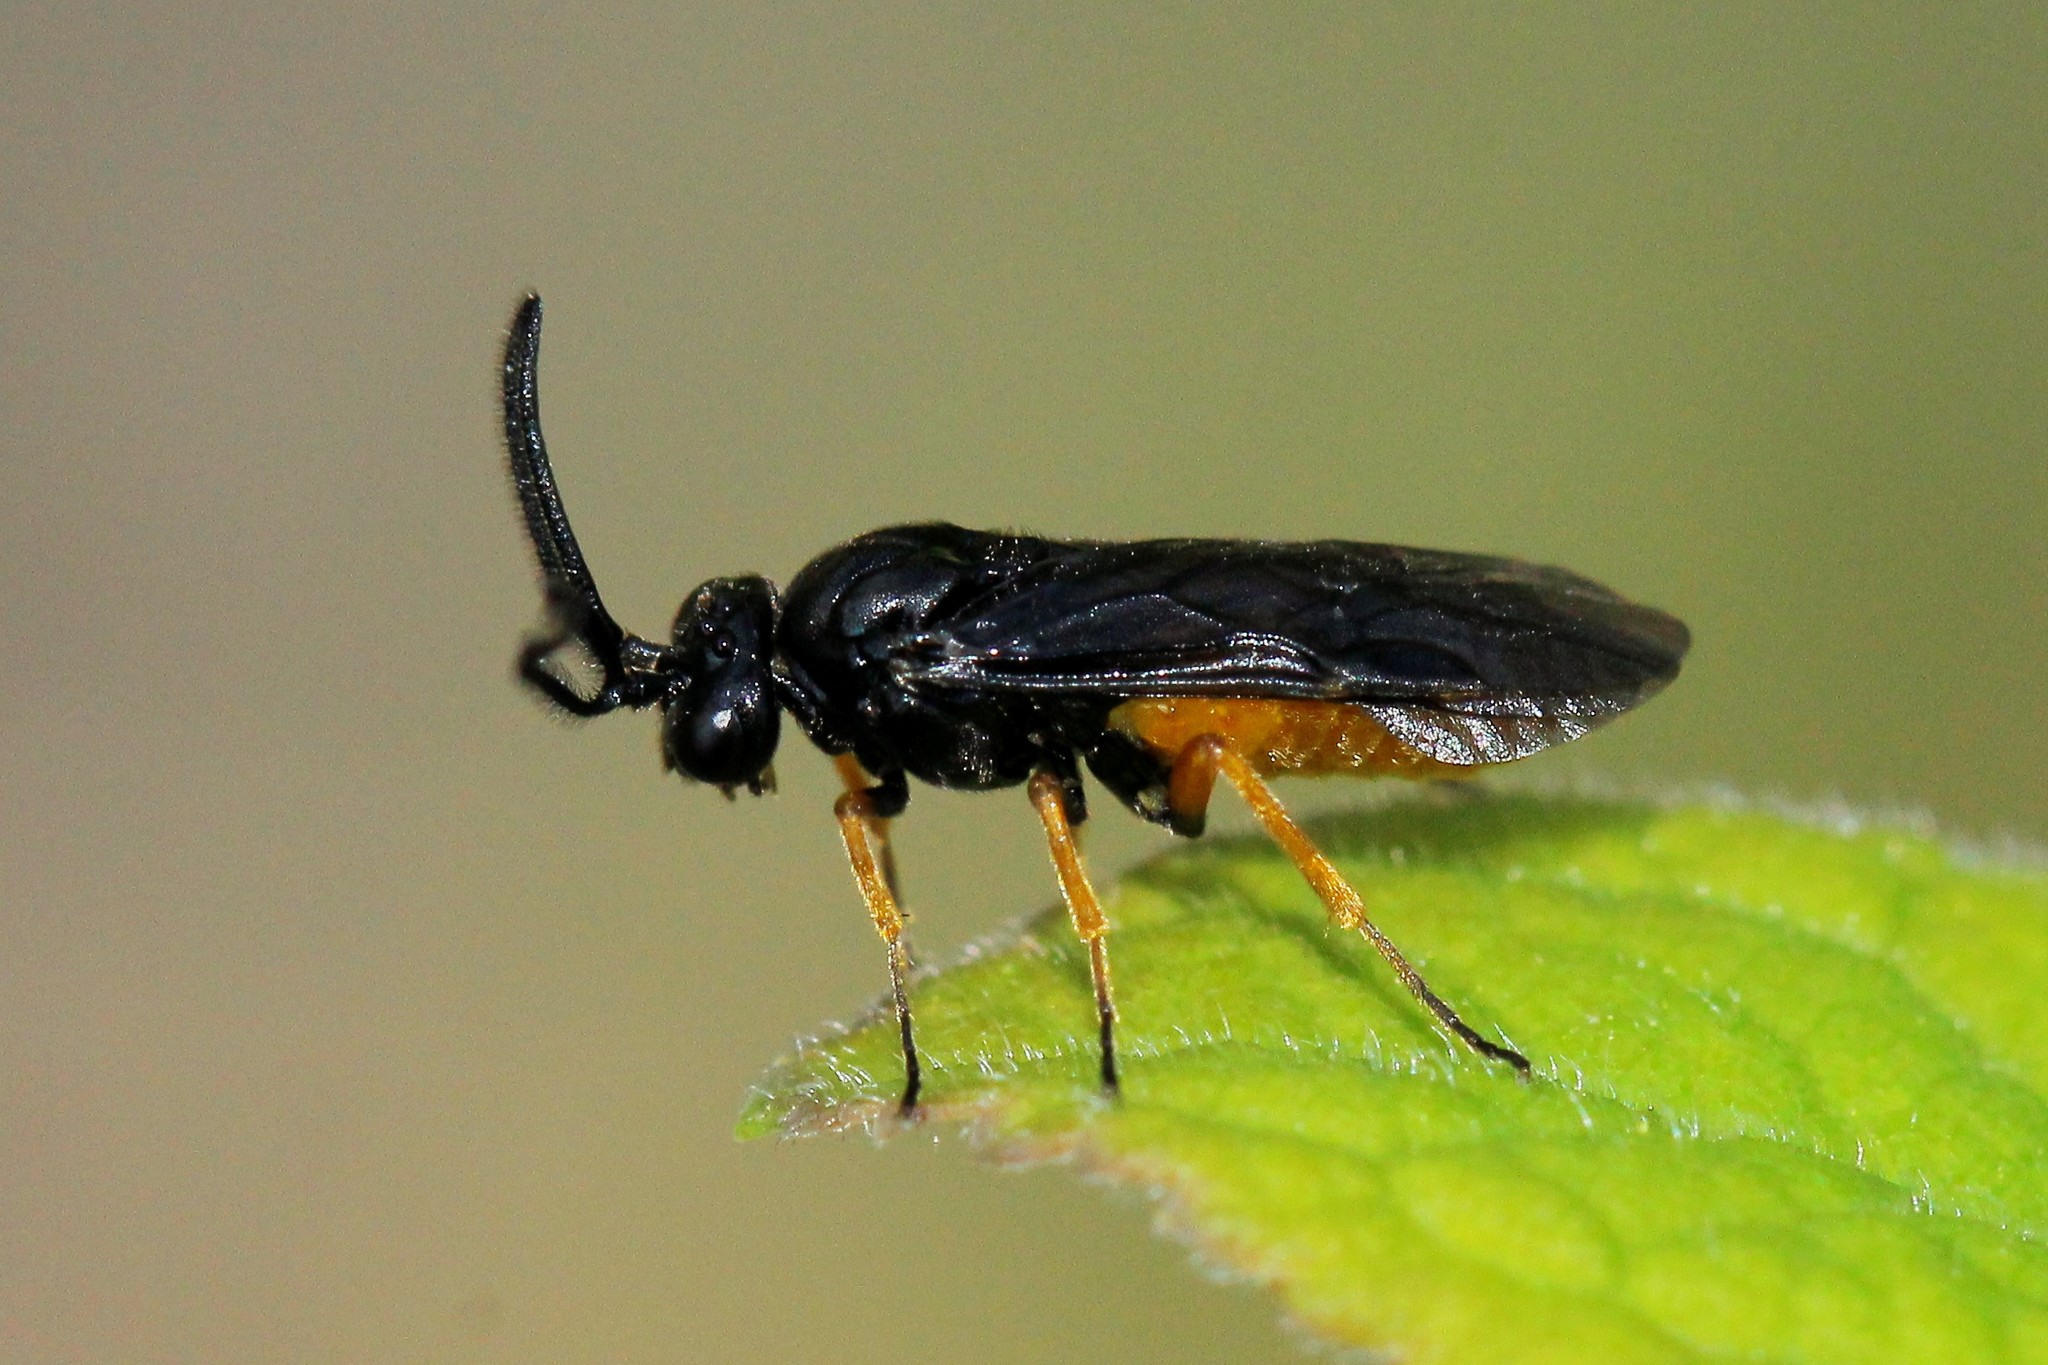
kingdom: Animalia
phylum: Arthropoda
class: Insecta
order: Hymenoptera
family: Argidae
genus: Sterictiphora
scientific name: Sterictiphora furcata
